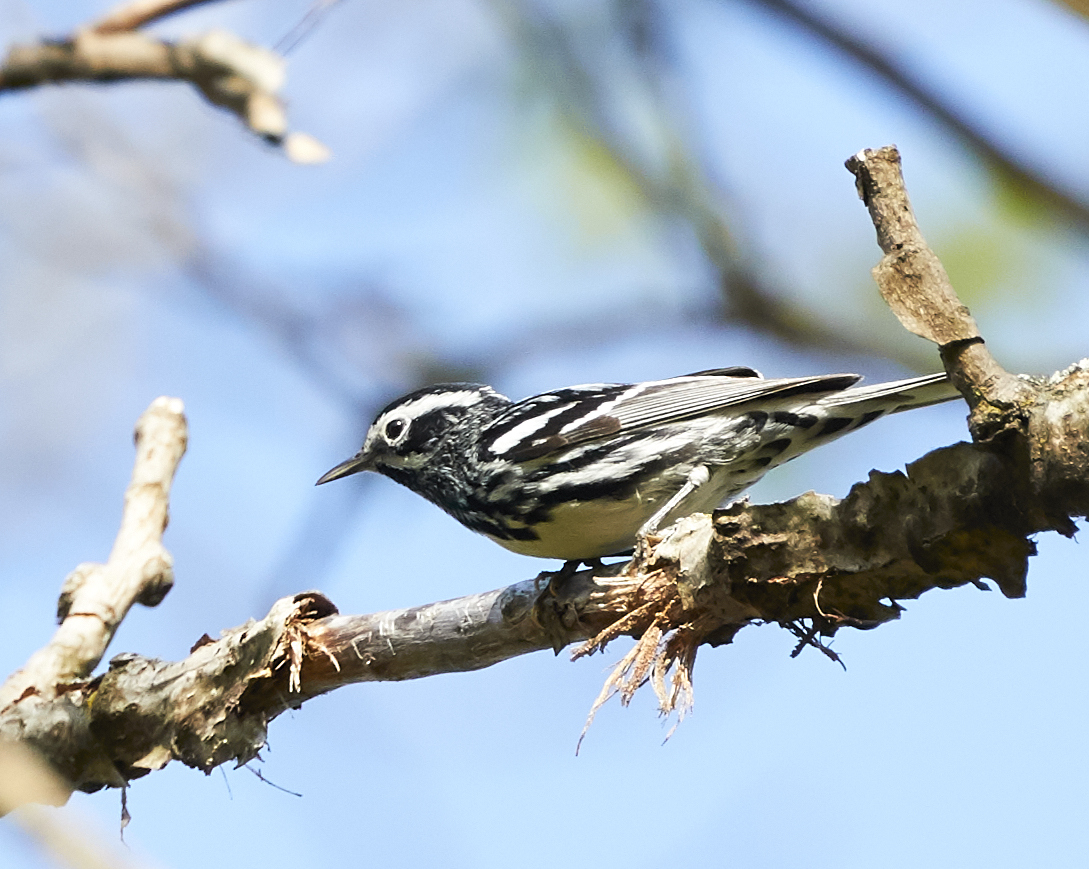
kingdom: Animalia
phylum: Chordata
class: Aves
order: Passeriformes
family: Parulidae
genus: Mniotilta
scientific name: Mniotilta varia
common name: Black-and-white warbler
